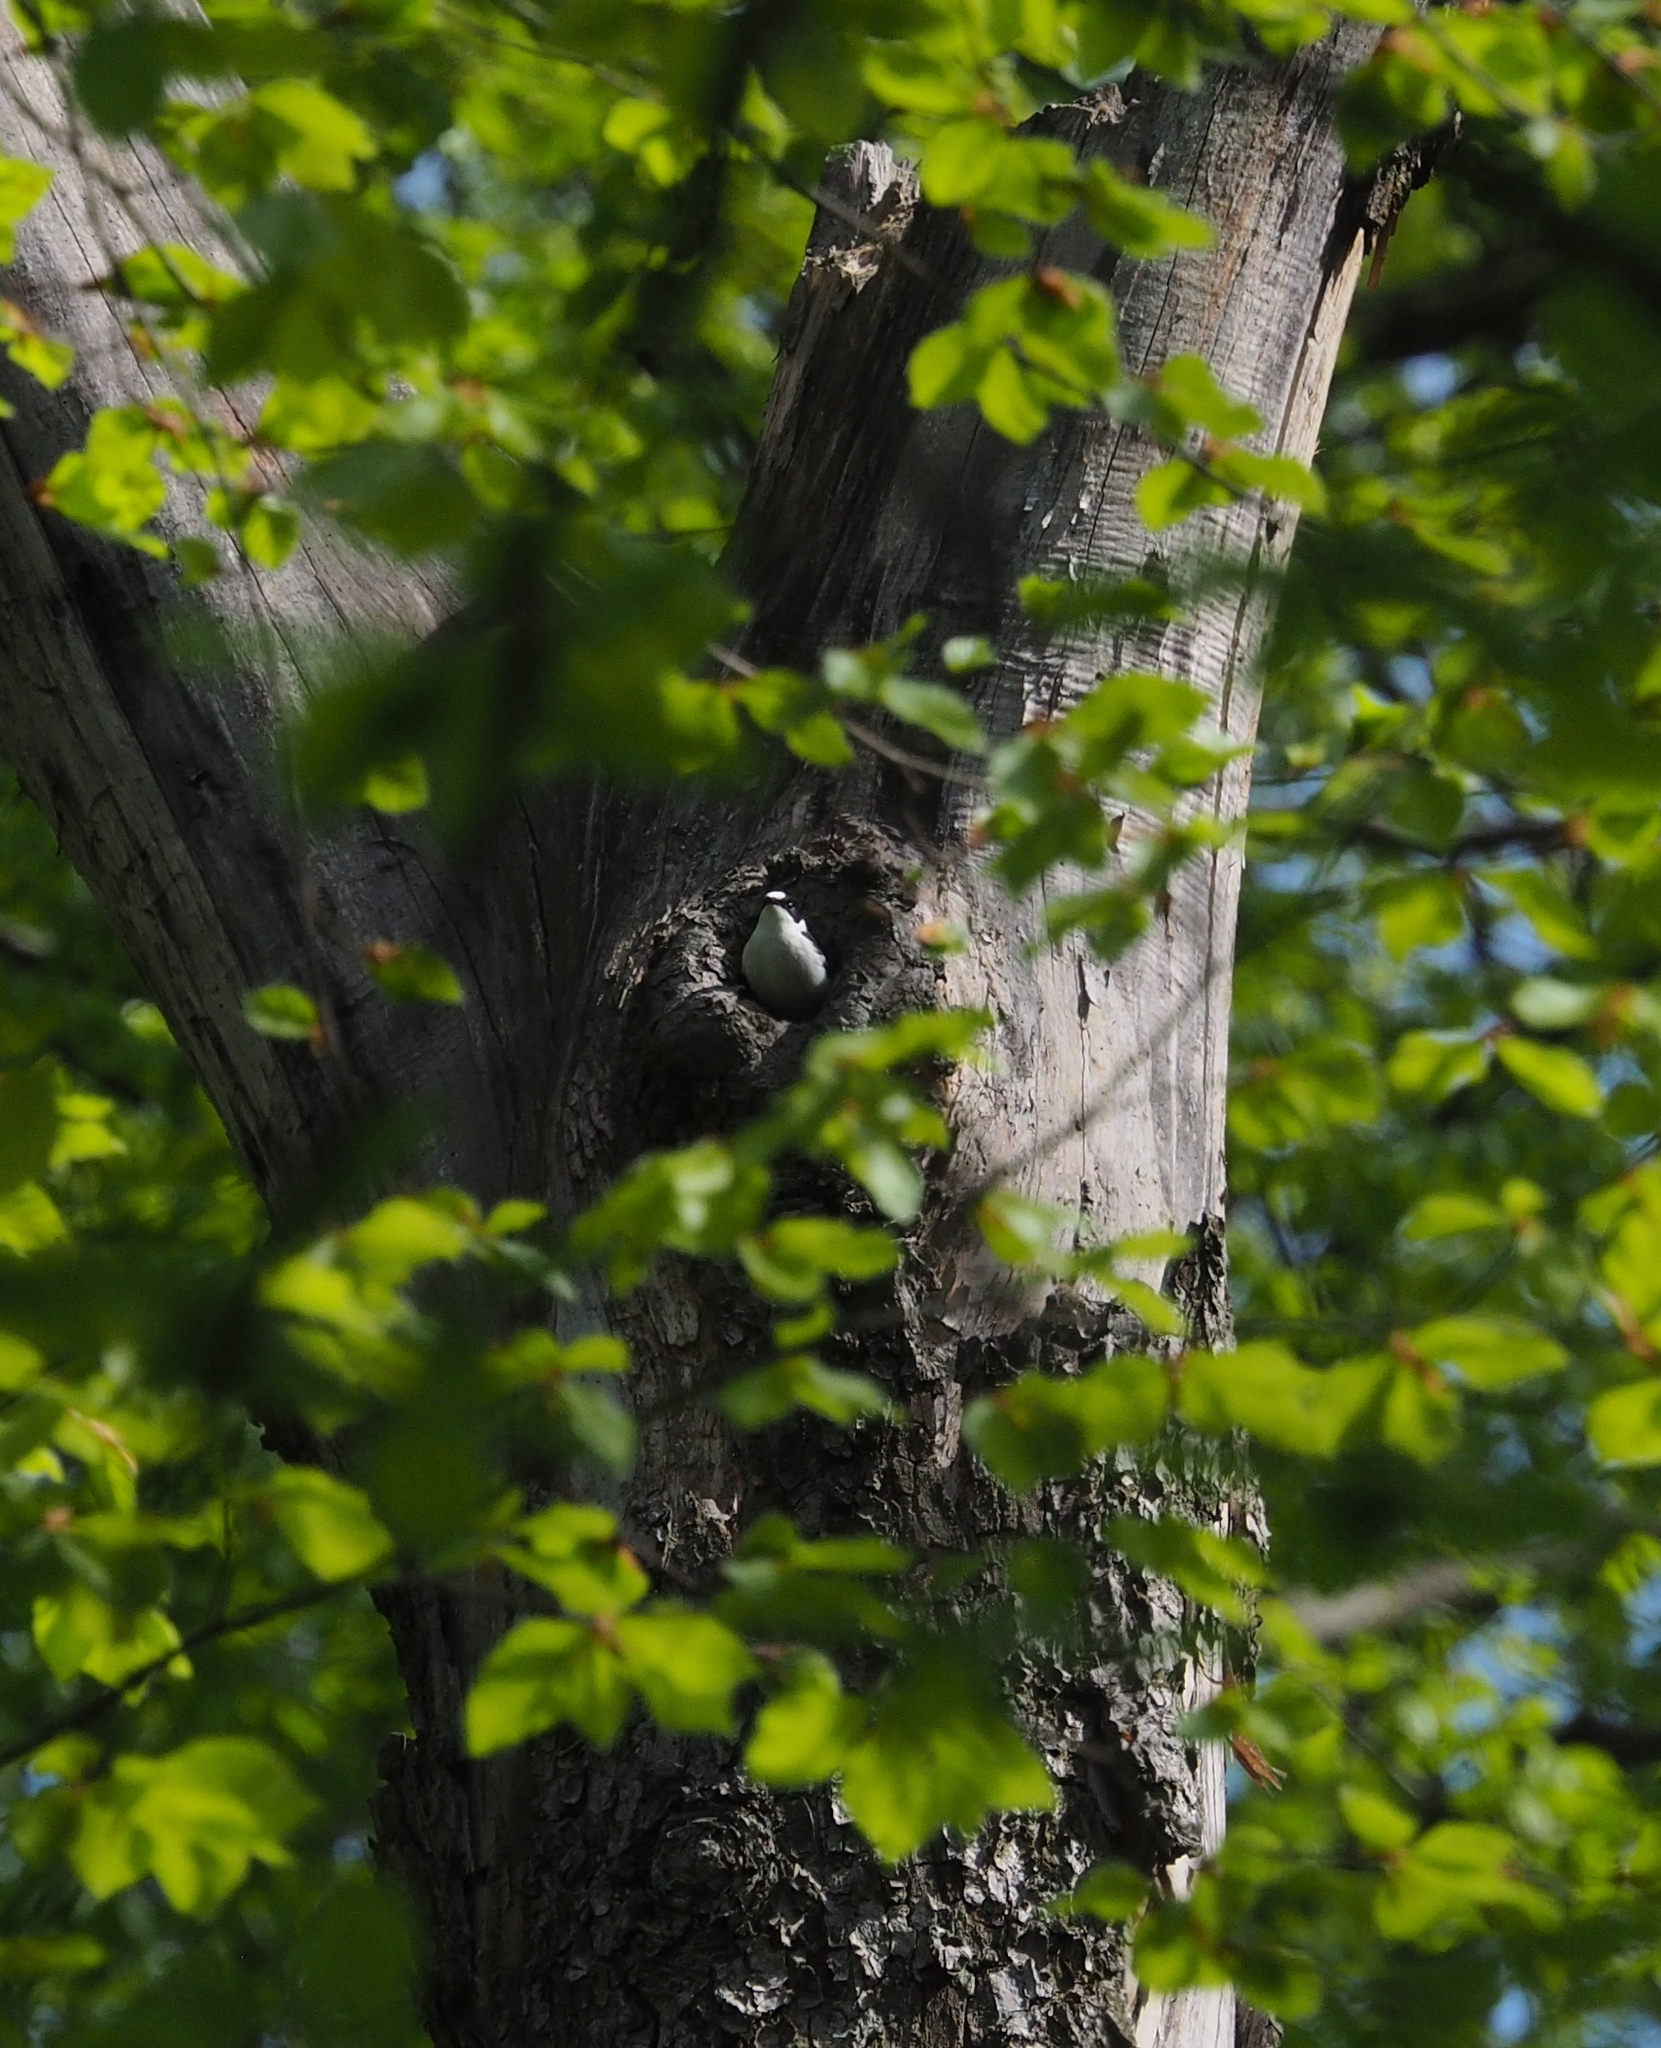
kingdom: Animalia
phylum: Chordata
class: Aves
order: Passeriformes
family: Muscicapidae
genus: Ficedula
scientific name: Ficedula albicollis
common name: Collared flycatcher
